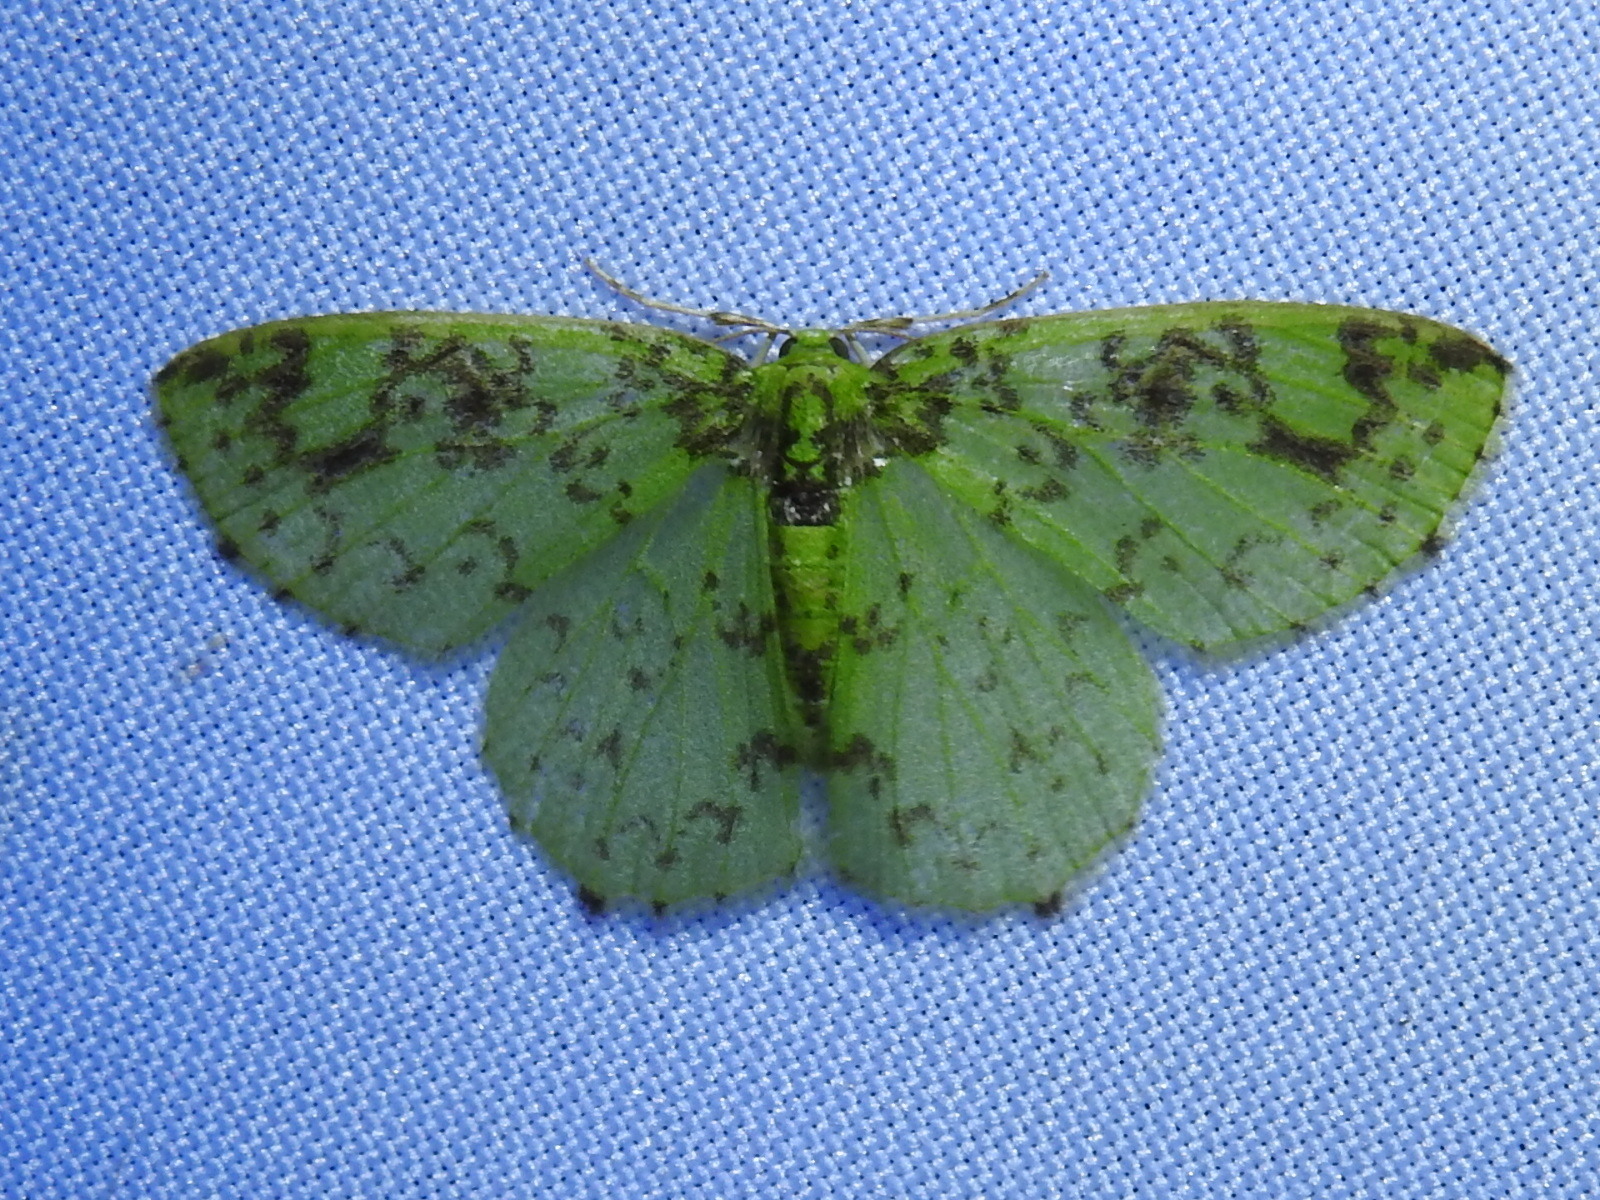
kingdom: Animalia
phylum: Arthropoda
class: Insecta
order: Lepidoptera
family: Geometridae
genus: Nemoria
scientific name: Nemoria scriptaria
